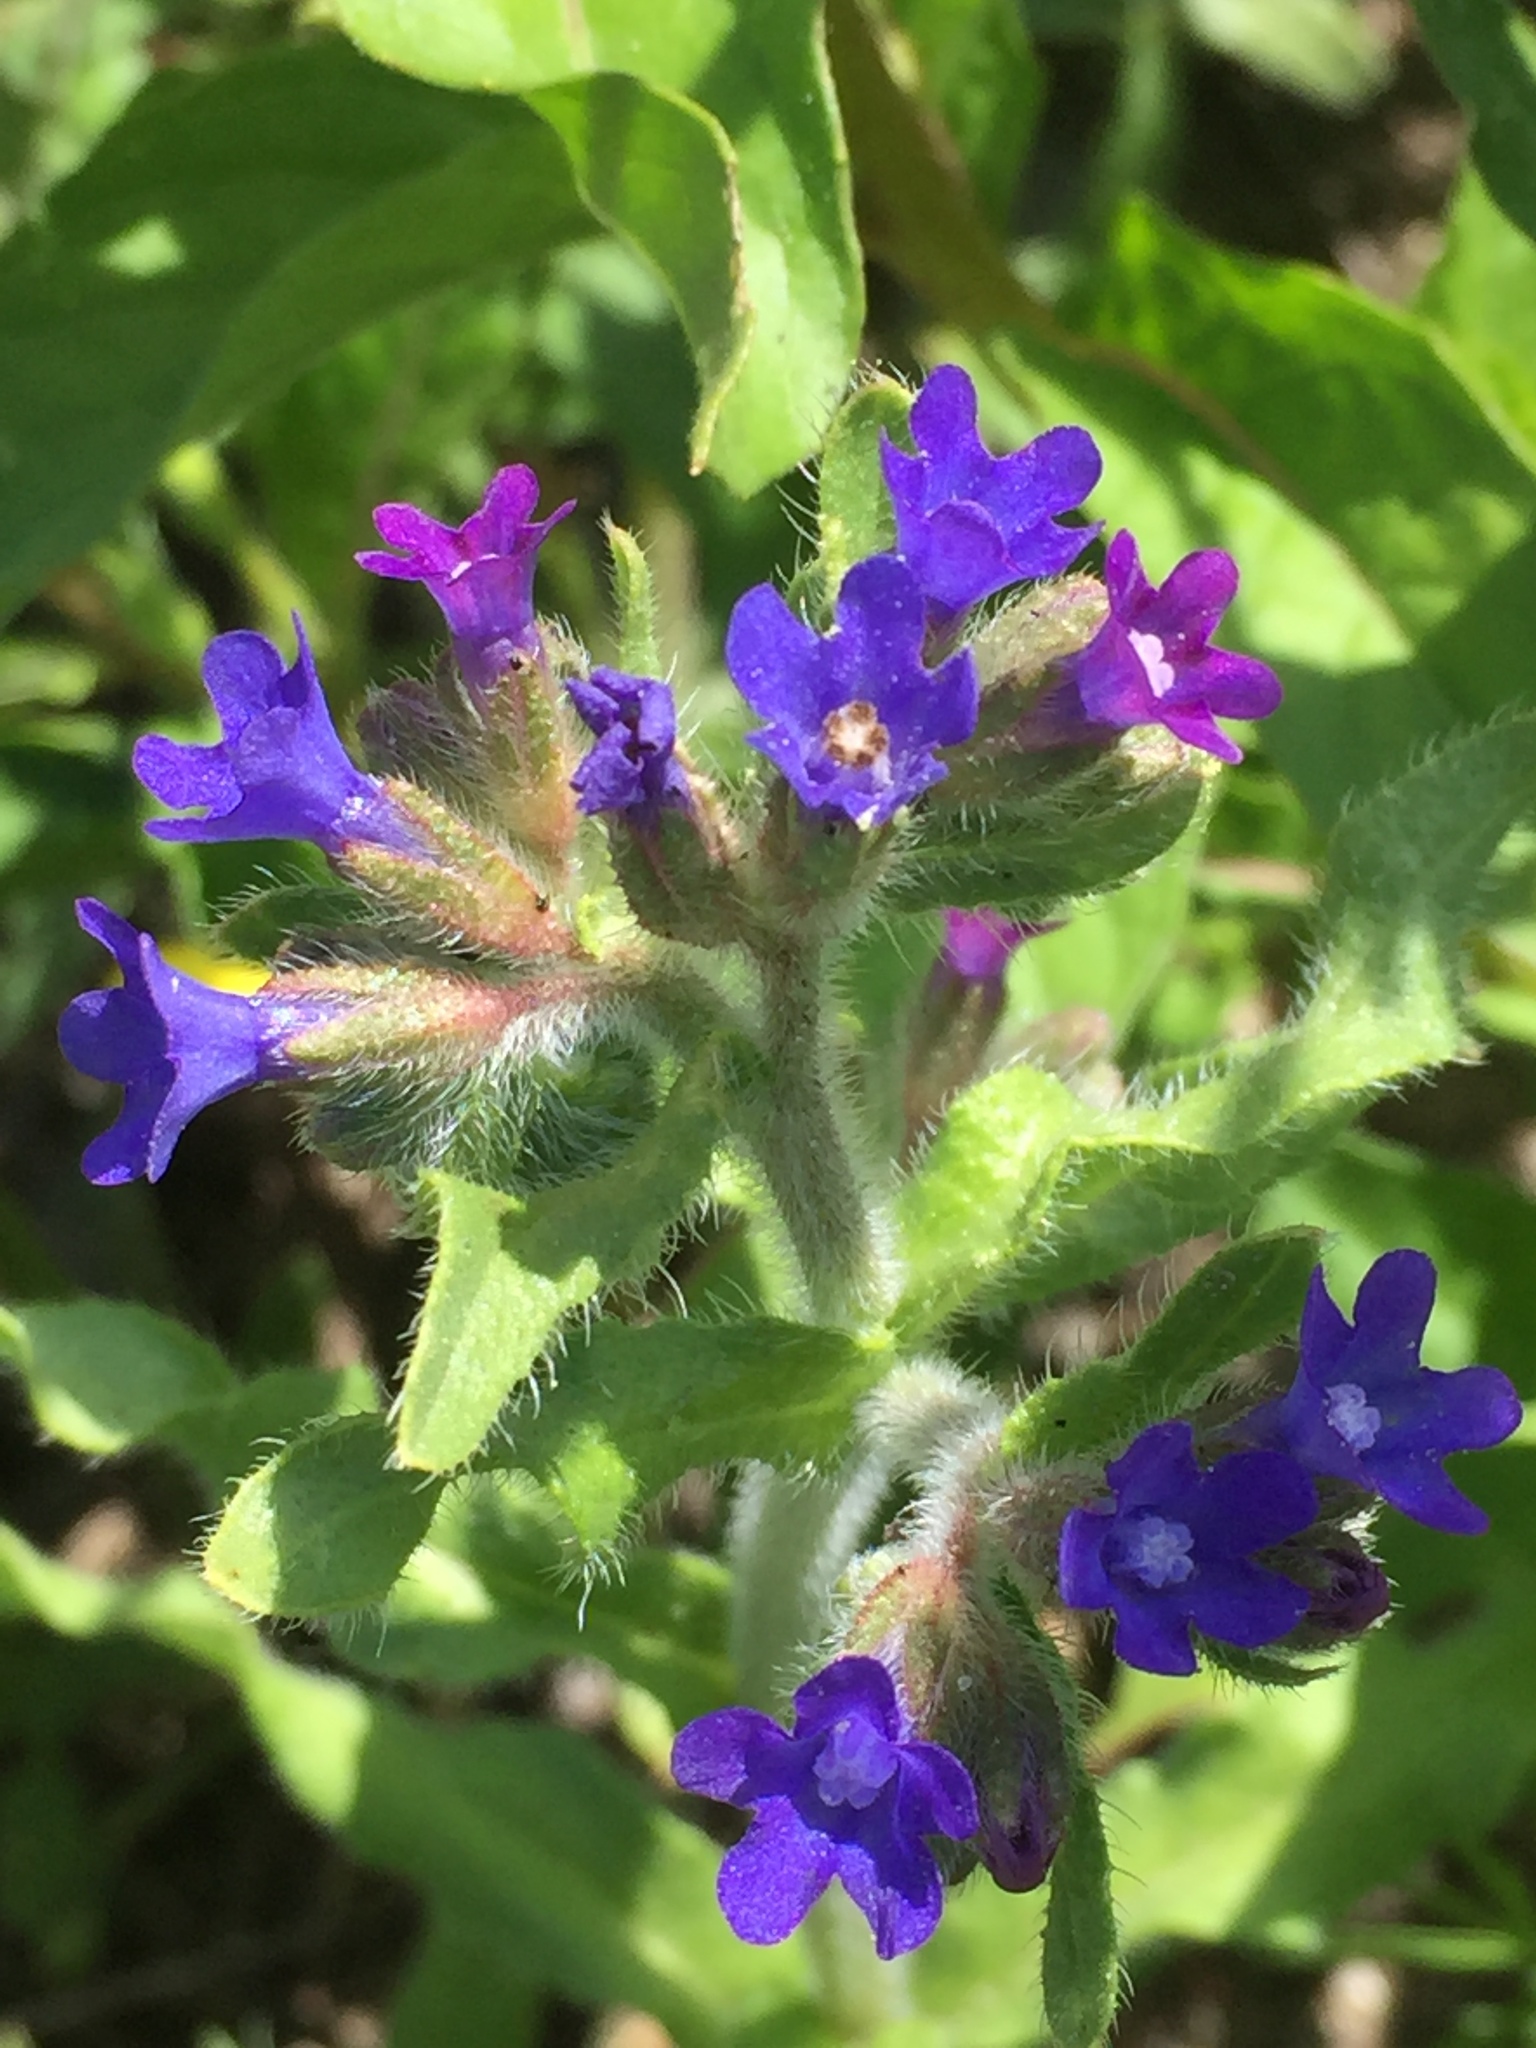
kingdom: Plantae
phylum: Tracheophyta
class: Magnoliopsida
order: Boraginales
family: Boraginaceae
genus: Anchusa
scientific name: Anchusa officinalis
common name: Alkanet
